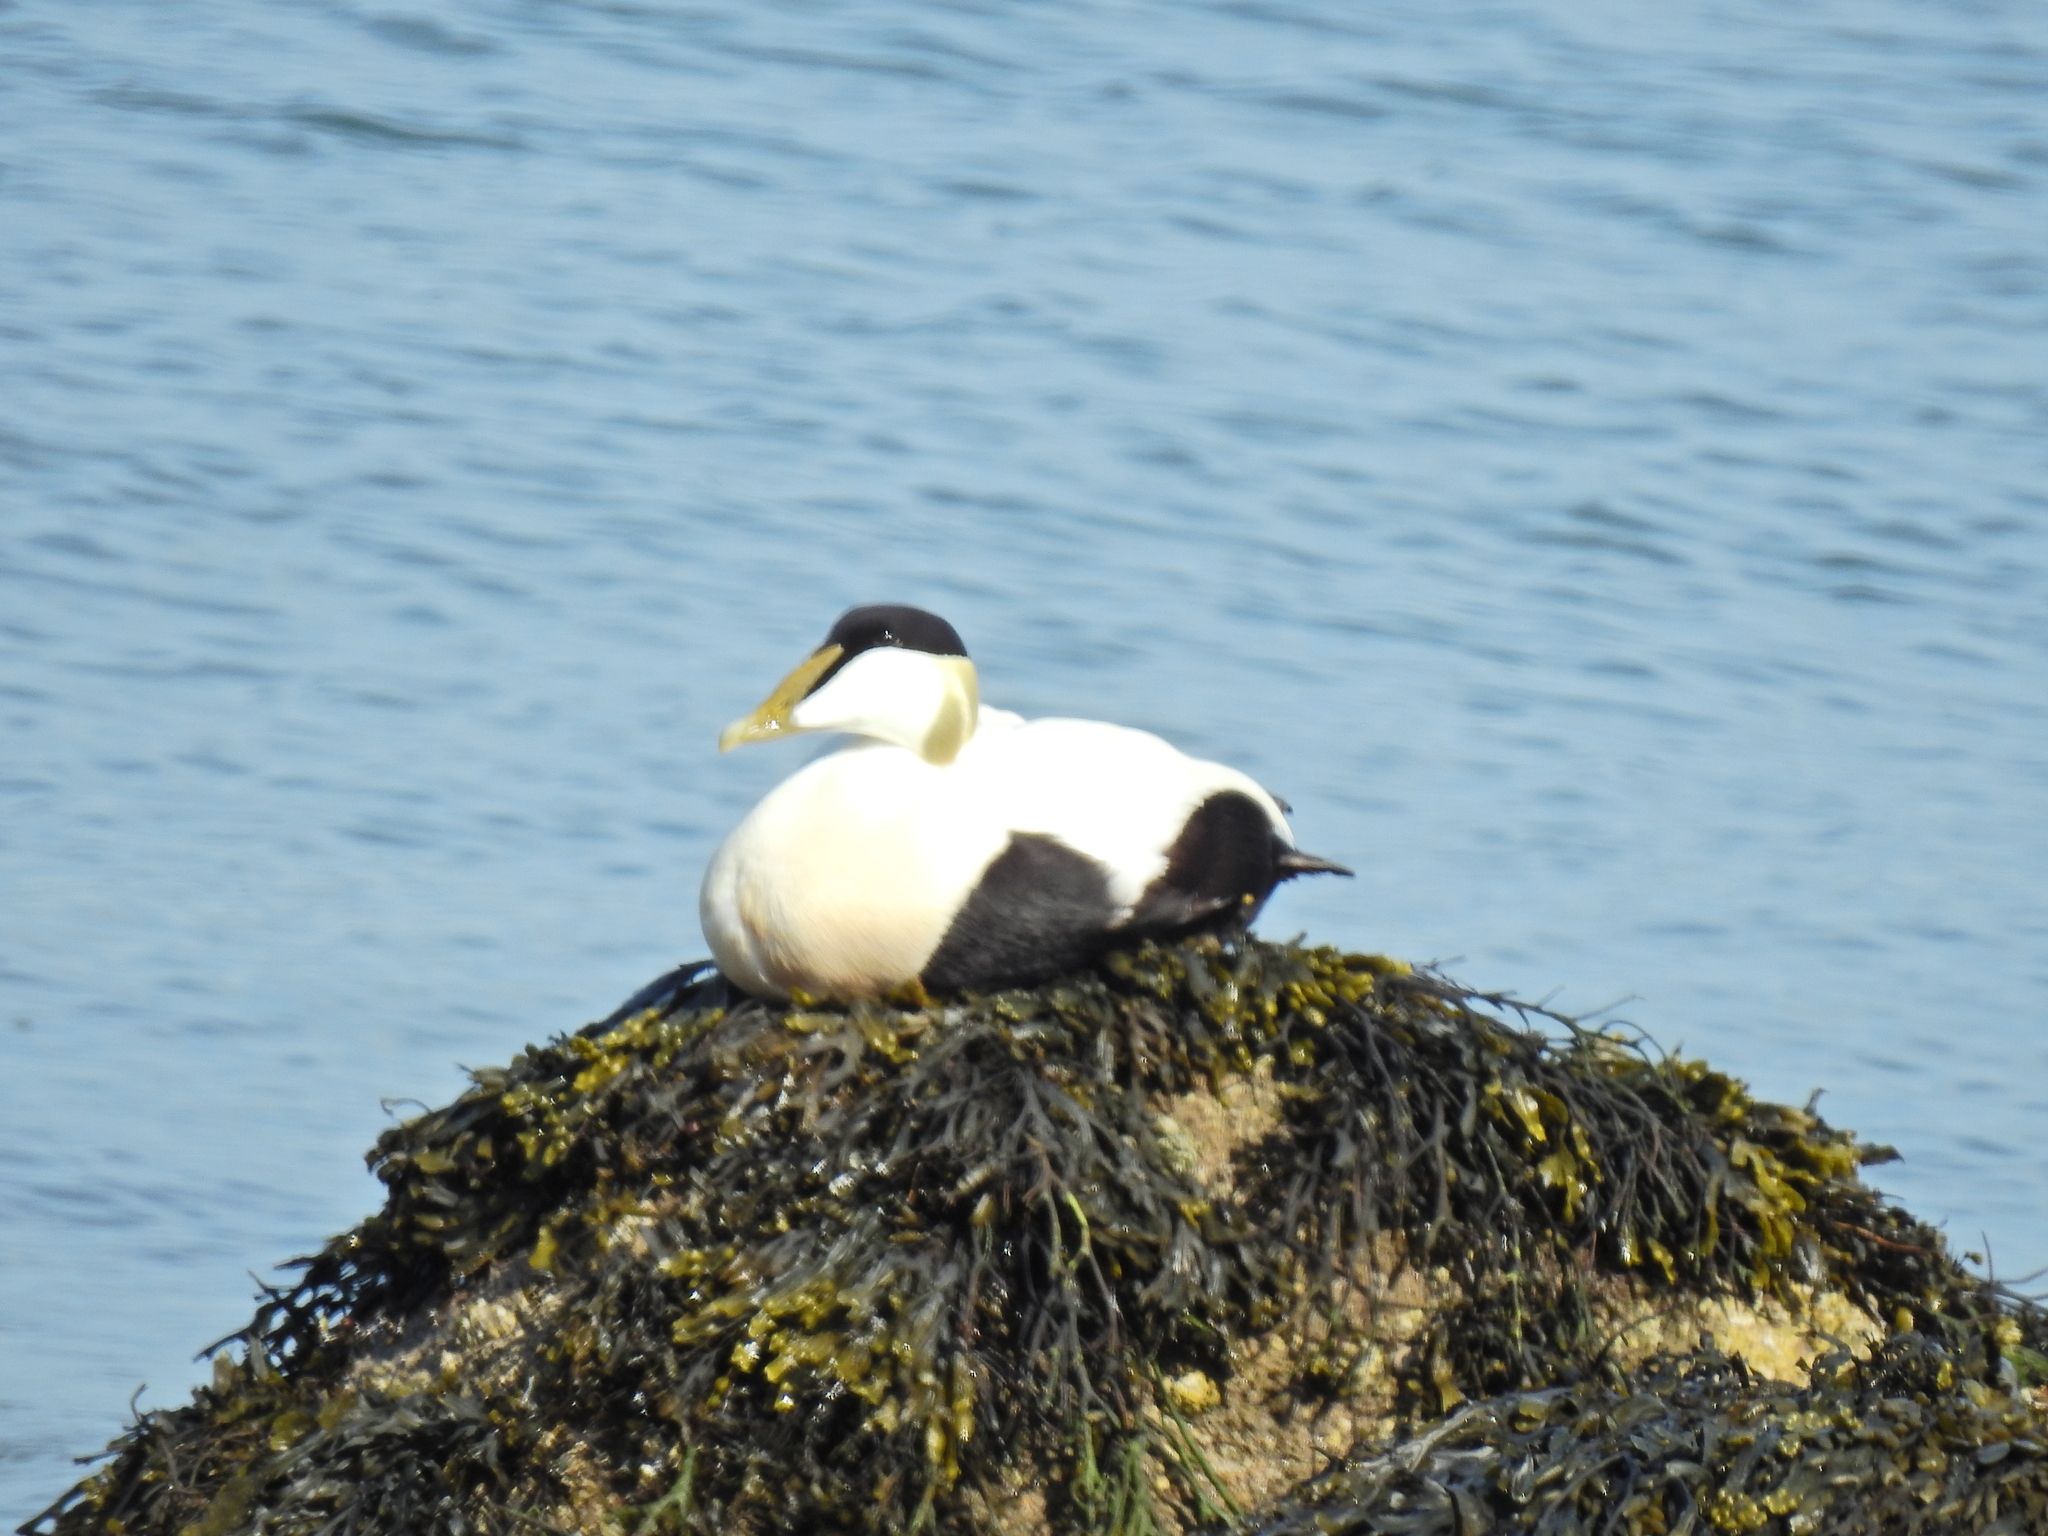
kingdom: Animalia
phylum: Chordata
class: Aves
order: Anseriformes
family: Anatidae
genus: Somateria
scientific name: Somateria mollissima
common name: Common eider
